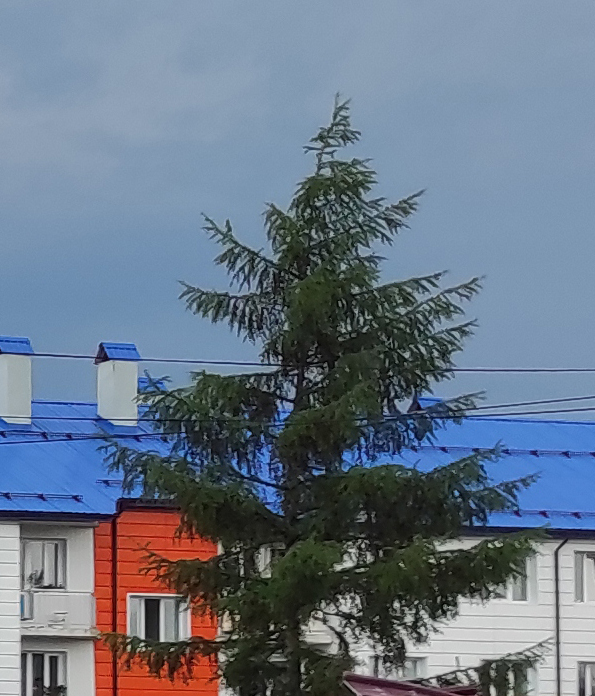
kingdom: Plantae
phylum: Tracheophyta
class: Pinopsida
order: Pinales
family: Pinaceae
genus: Larix
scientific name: Larix gmelinii
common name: Dahurian larch
